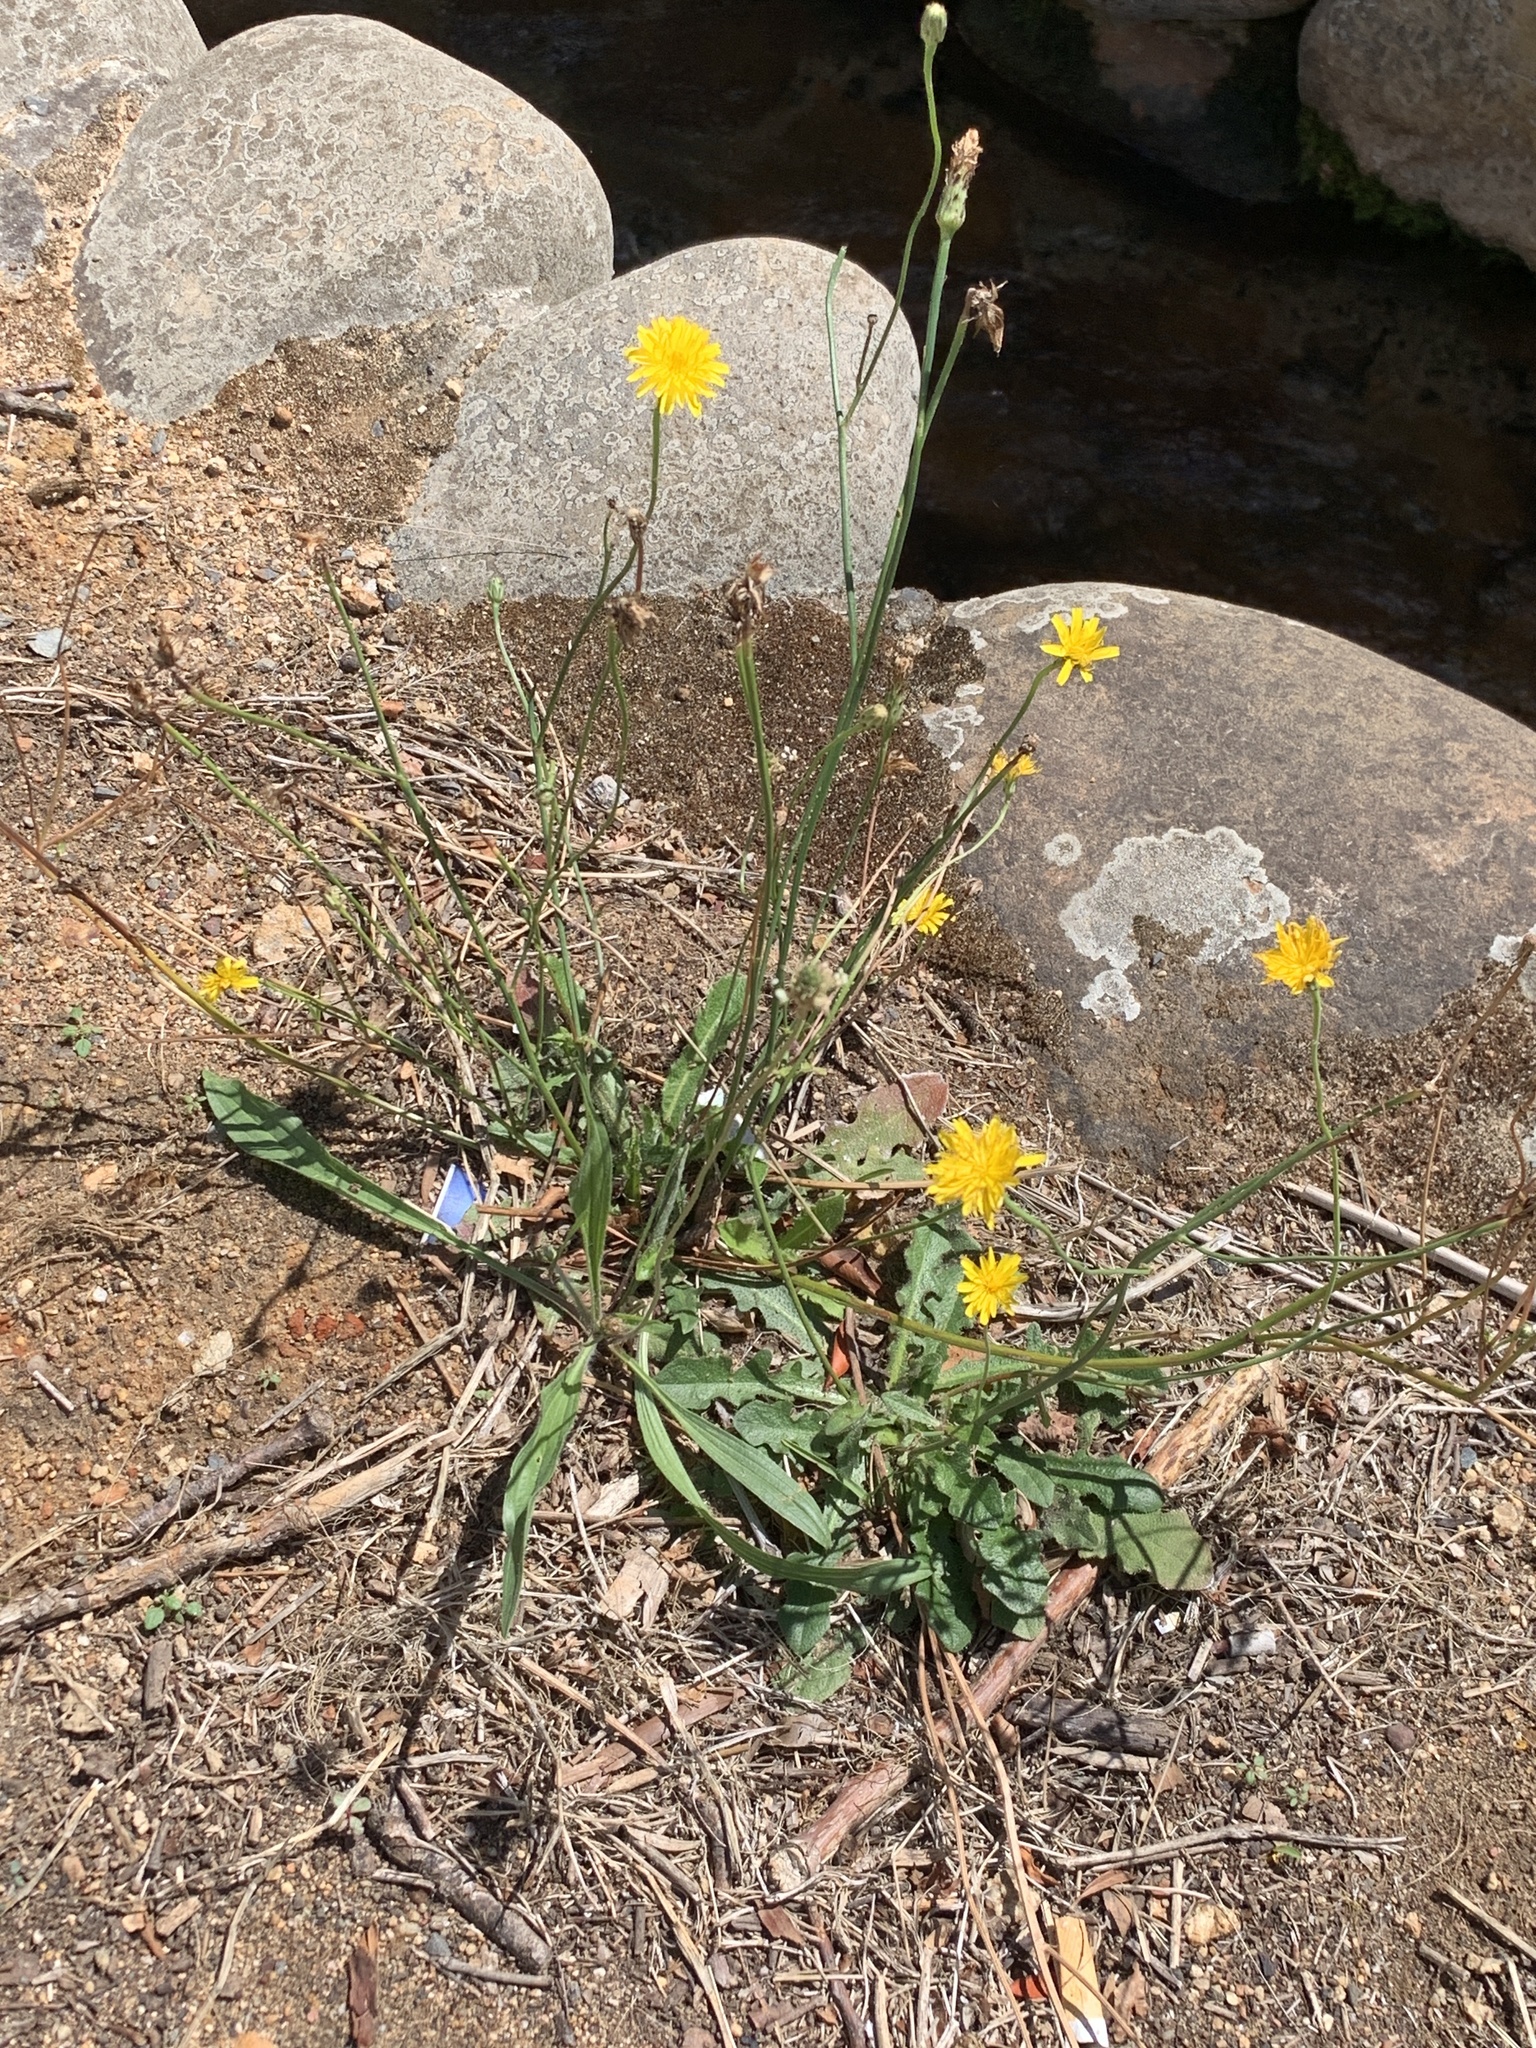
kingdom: Plantae
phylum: Tracheophyta
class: Magnoliopsida
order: Asterales
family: Asteraceae
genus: Hypochaeris
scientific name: Hypochaeris radicata
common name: Flatweed
